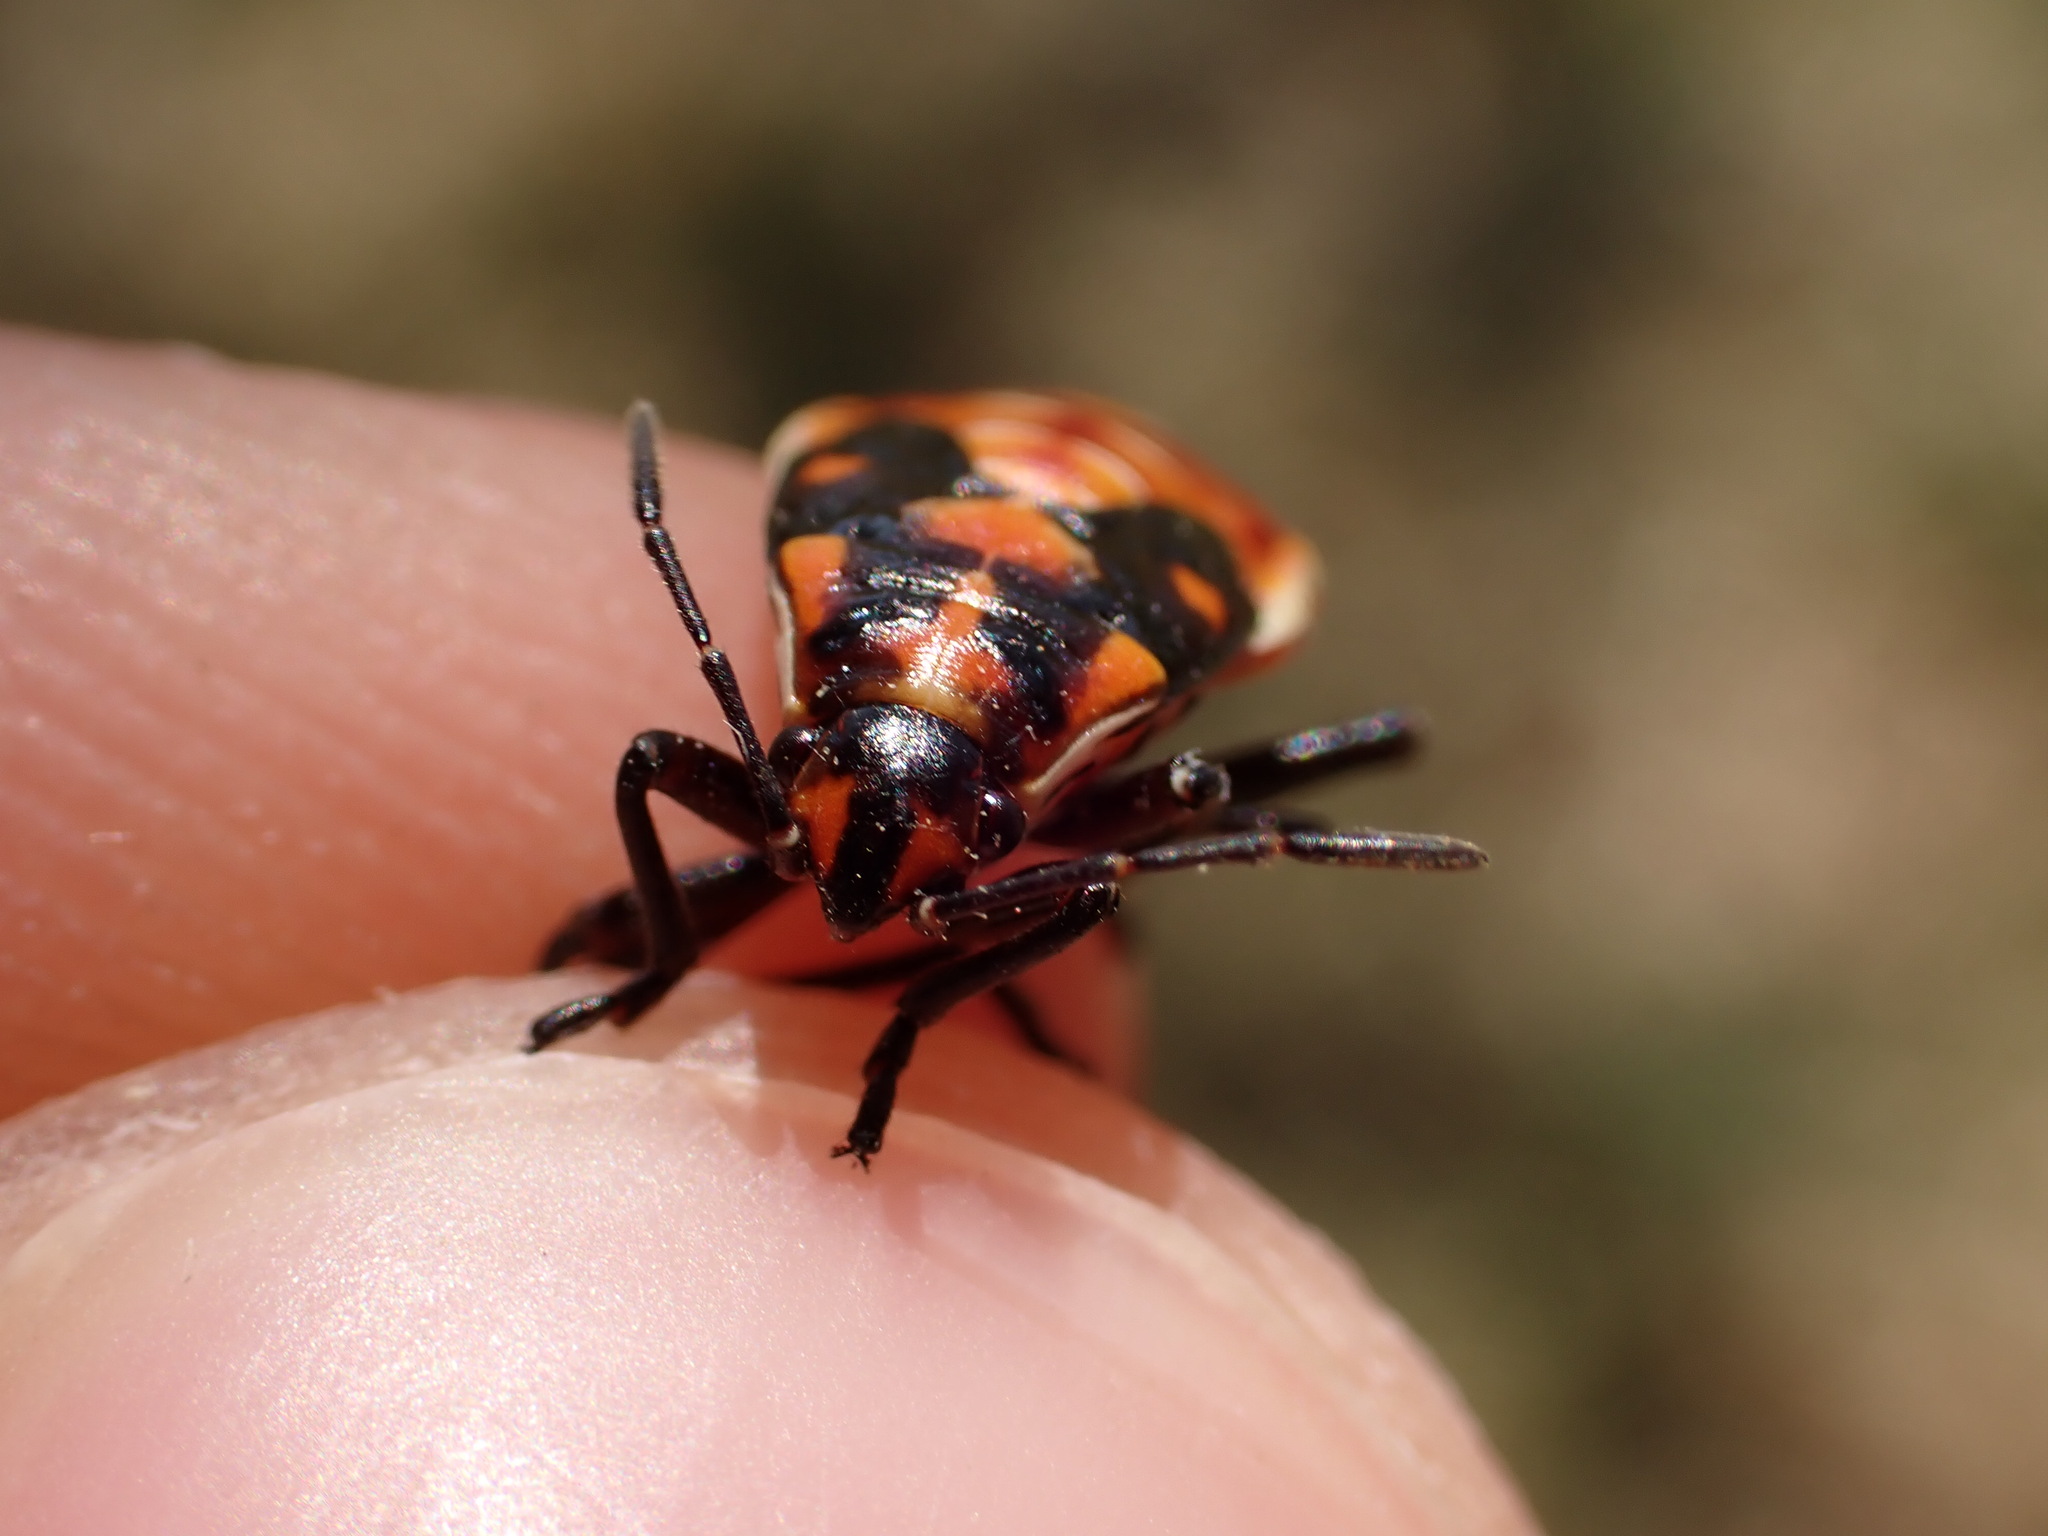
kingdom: Animalia
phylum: Arthropoda
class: Insecta
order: Hemiptera
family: Lygaeidae
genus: Spilostethus
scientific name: Spilostethus pandurus
